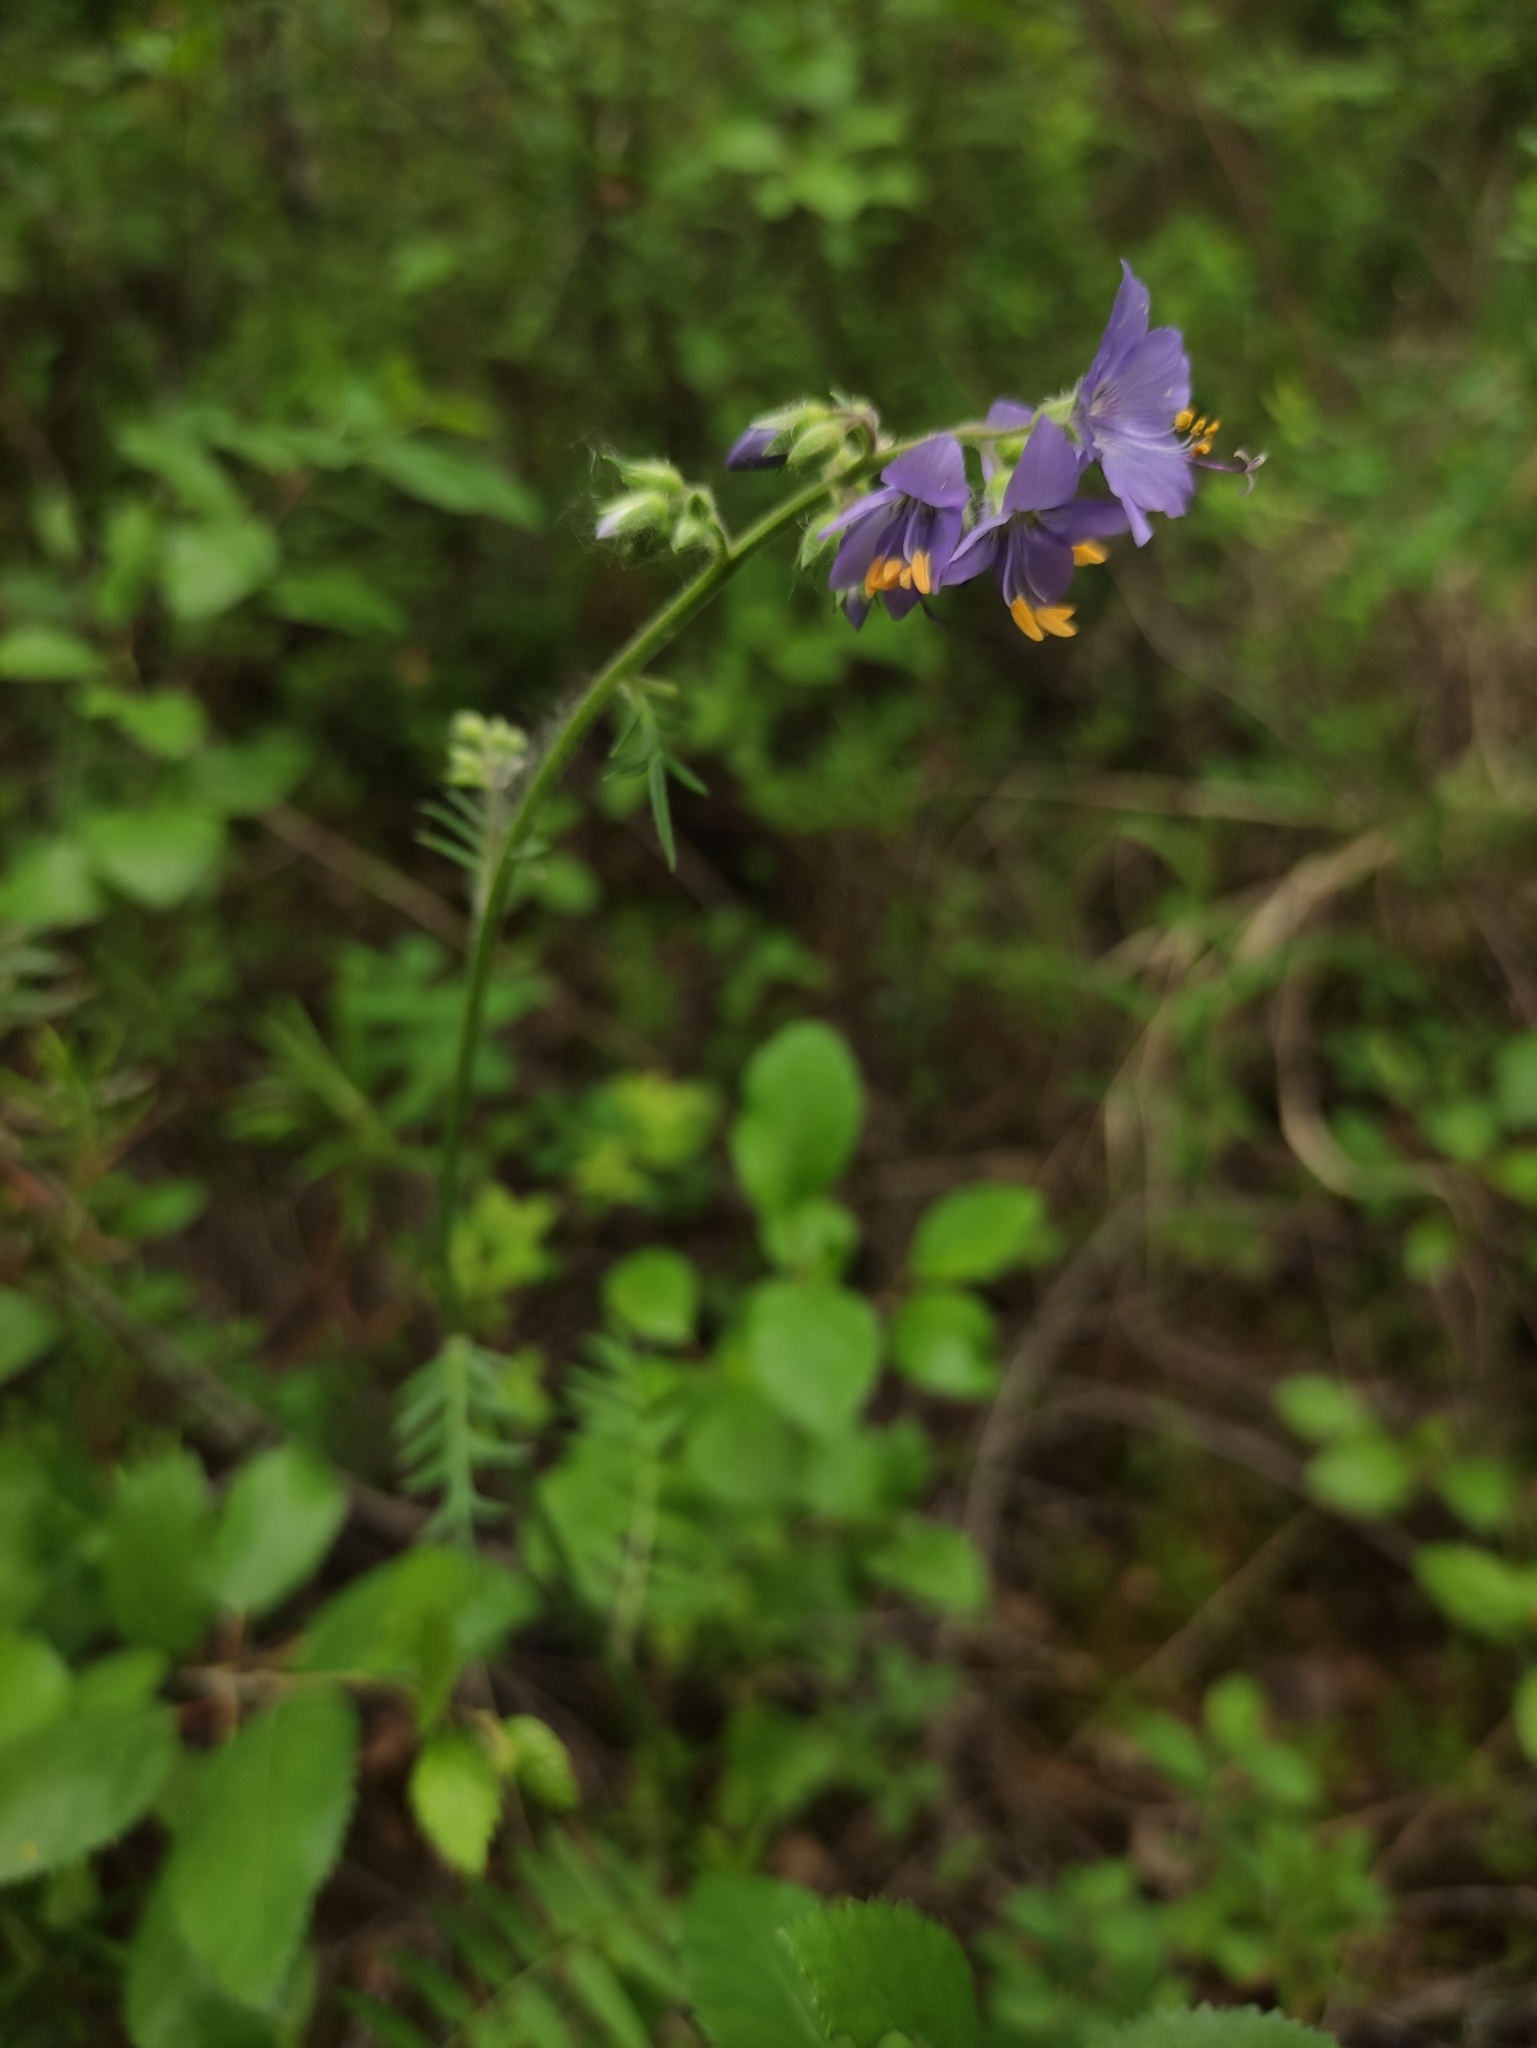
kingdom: Plantae
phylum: Tracheophyta
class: Magnoliopsida
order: Ericales
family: Polemoniaceae
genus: Polemonium
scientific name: Polemonium caeruleum
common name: Jacob's-ladder
